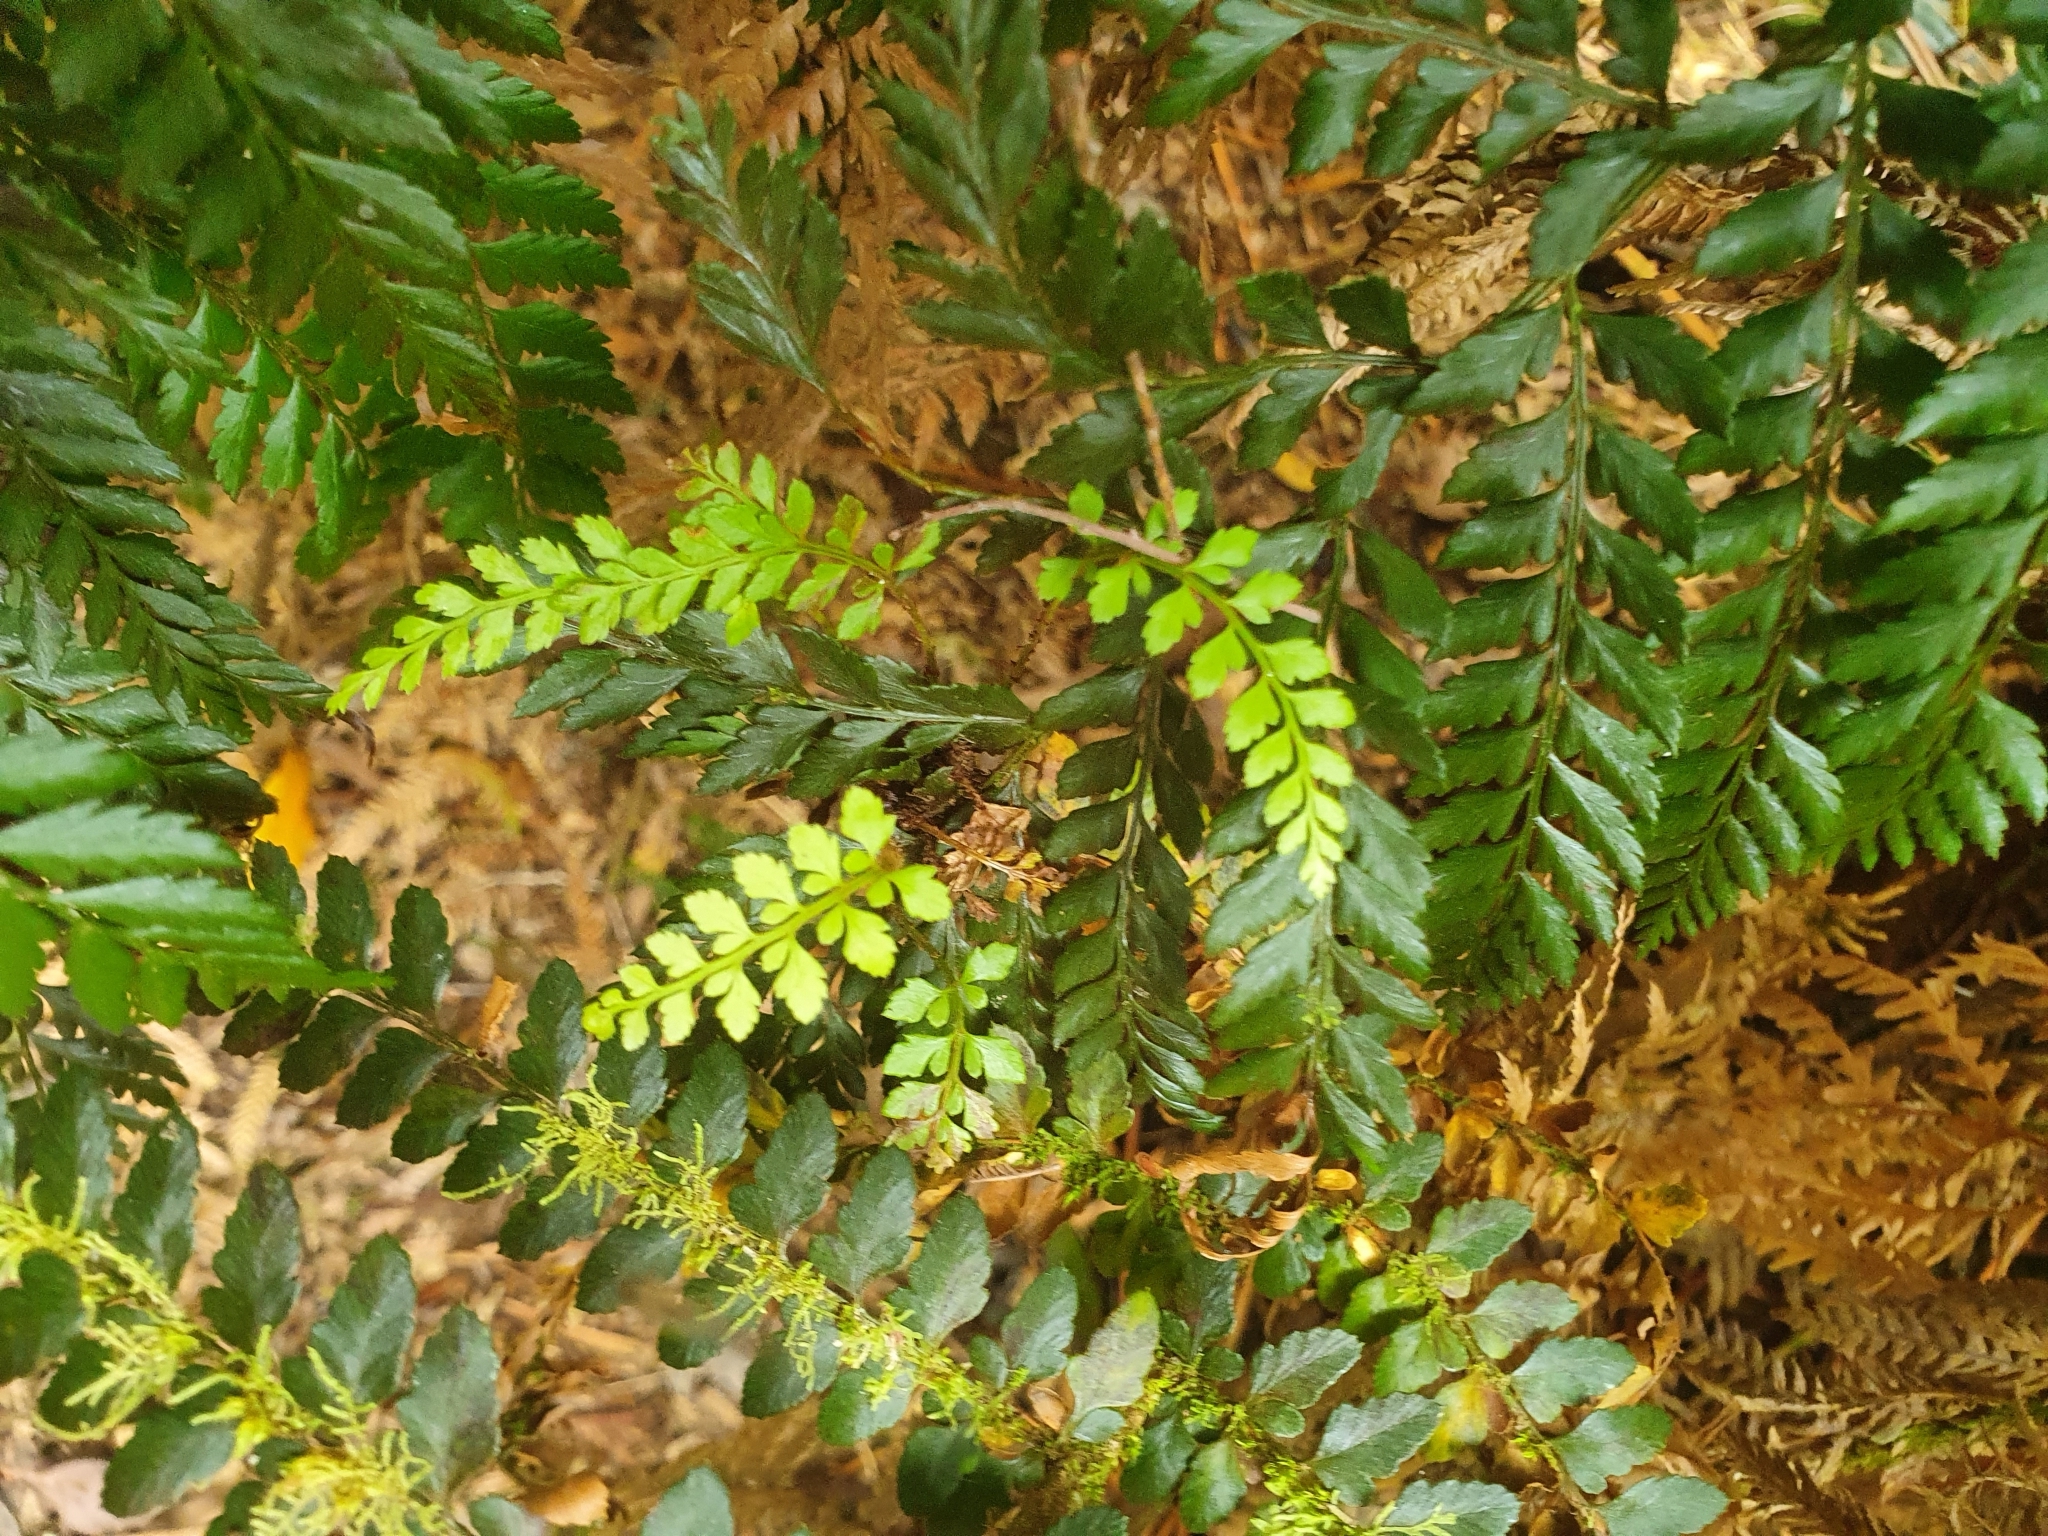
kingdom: Plantae
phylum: Tracheophyta
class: Polypodiopsida
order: Polypodiales
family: Dryopteridaceae
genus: Polystichum
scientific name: Polystichum proliferum
